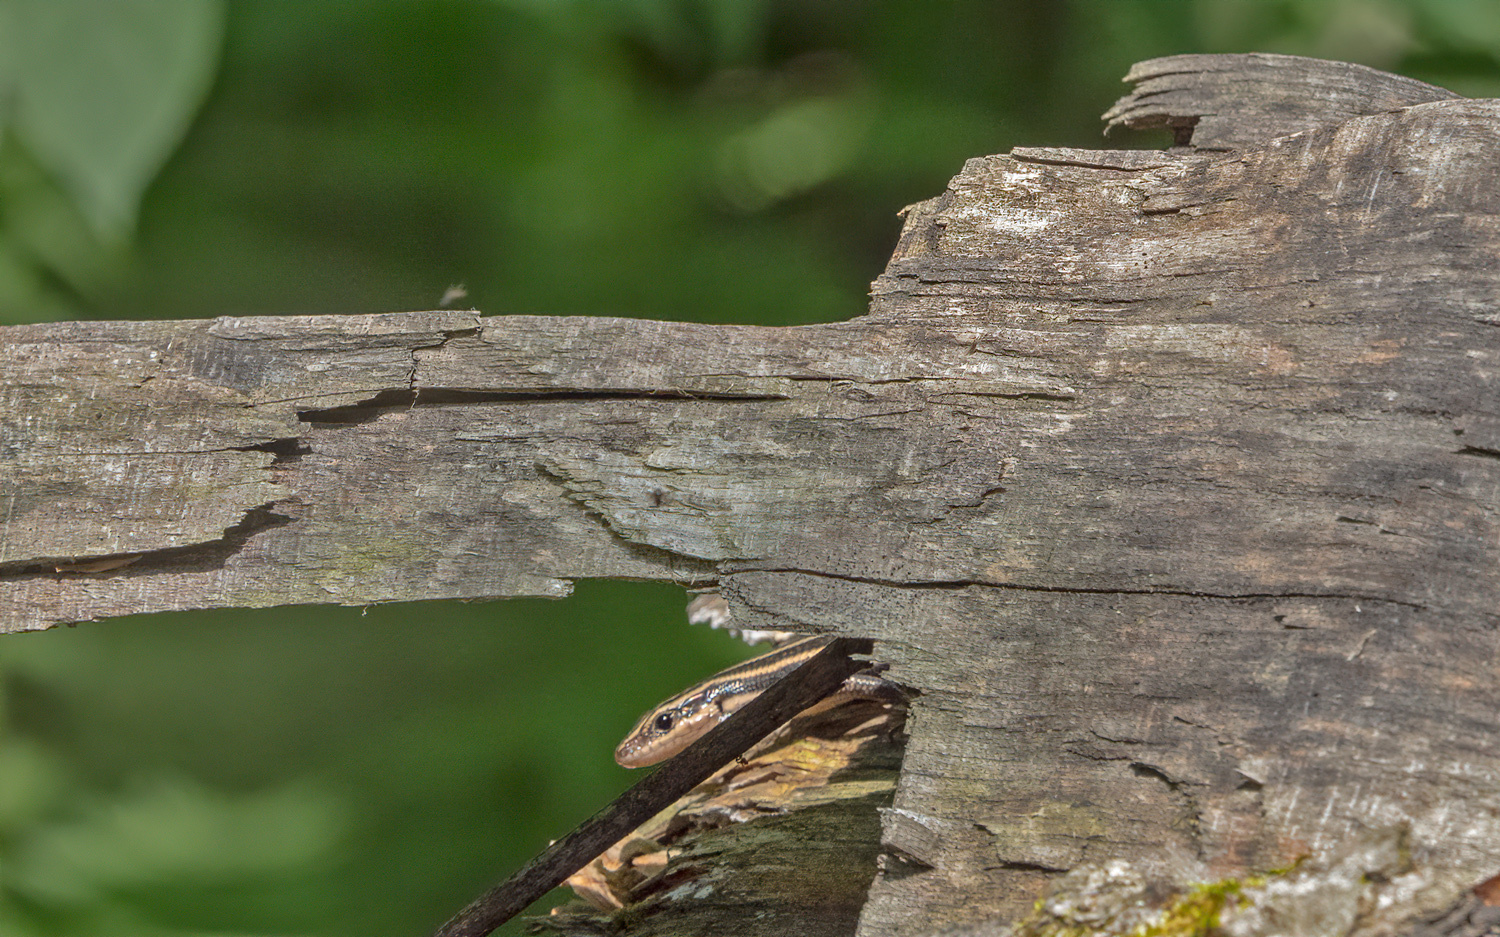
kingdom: Animalia
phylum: Chordata
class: Squamata
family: Scincidae
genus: Plestiodon
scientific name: Plestiodon fasciatus
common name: Five-lined skink
